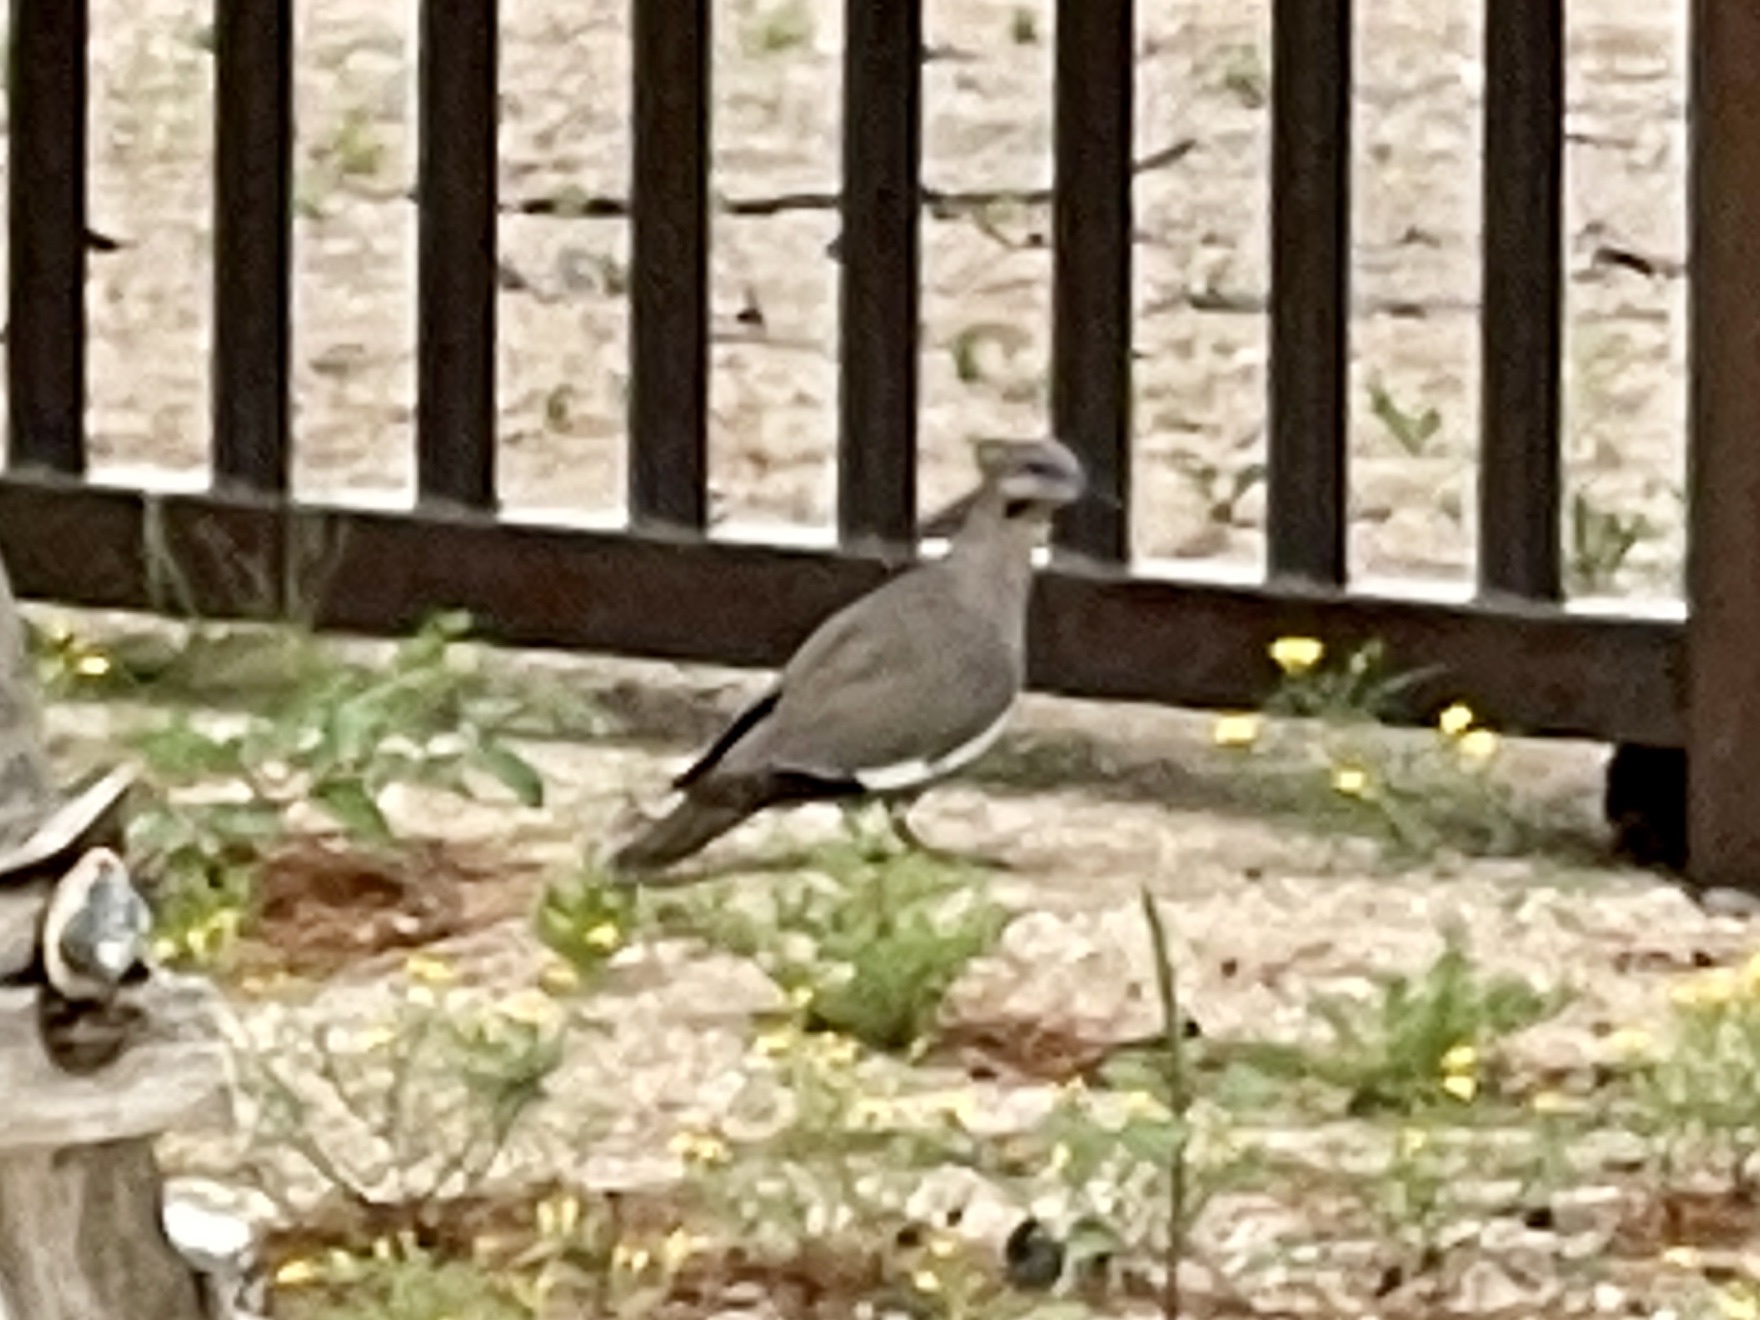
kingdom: Animalia
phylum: Chordata
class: Aves
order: Columbiformes
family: Columbidae
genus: Zenaida
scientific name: Zenaida asiatica
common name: White-winged dove
